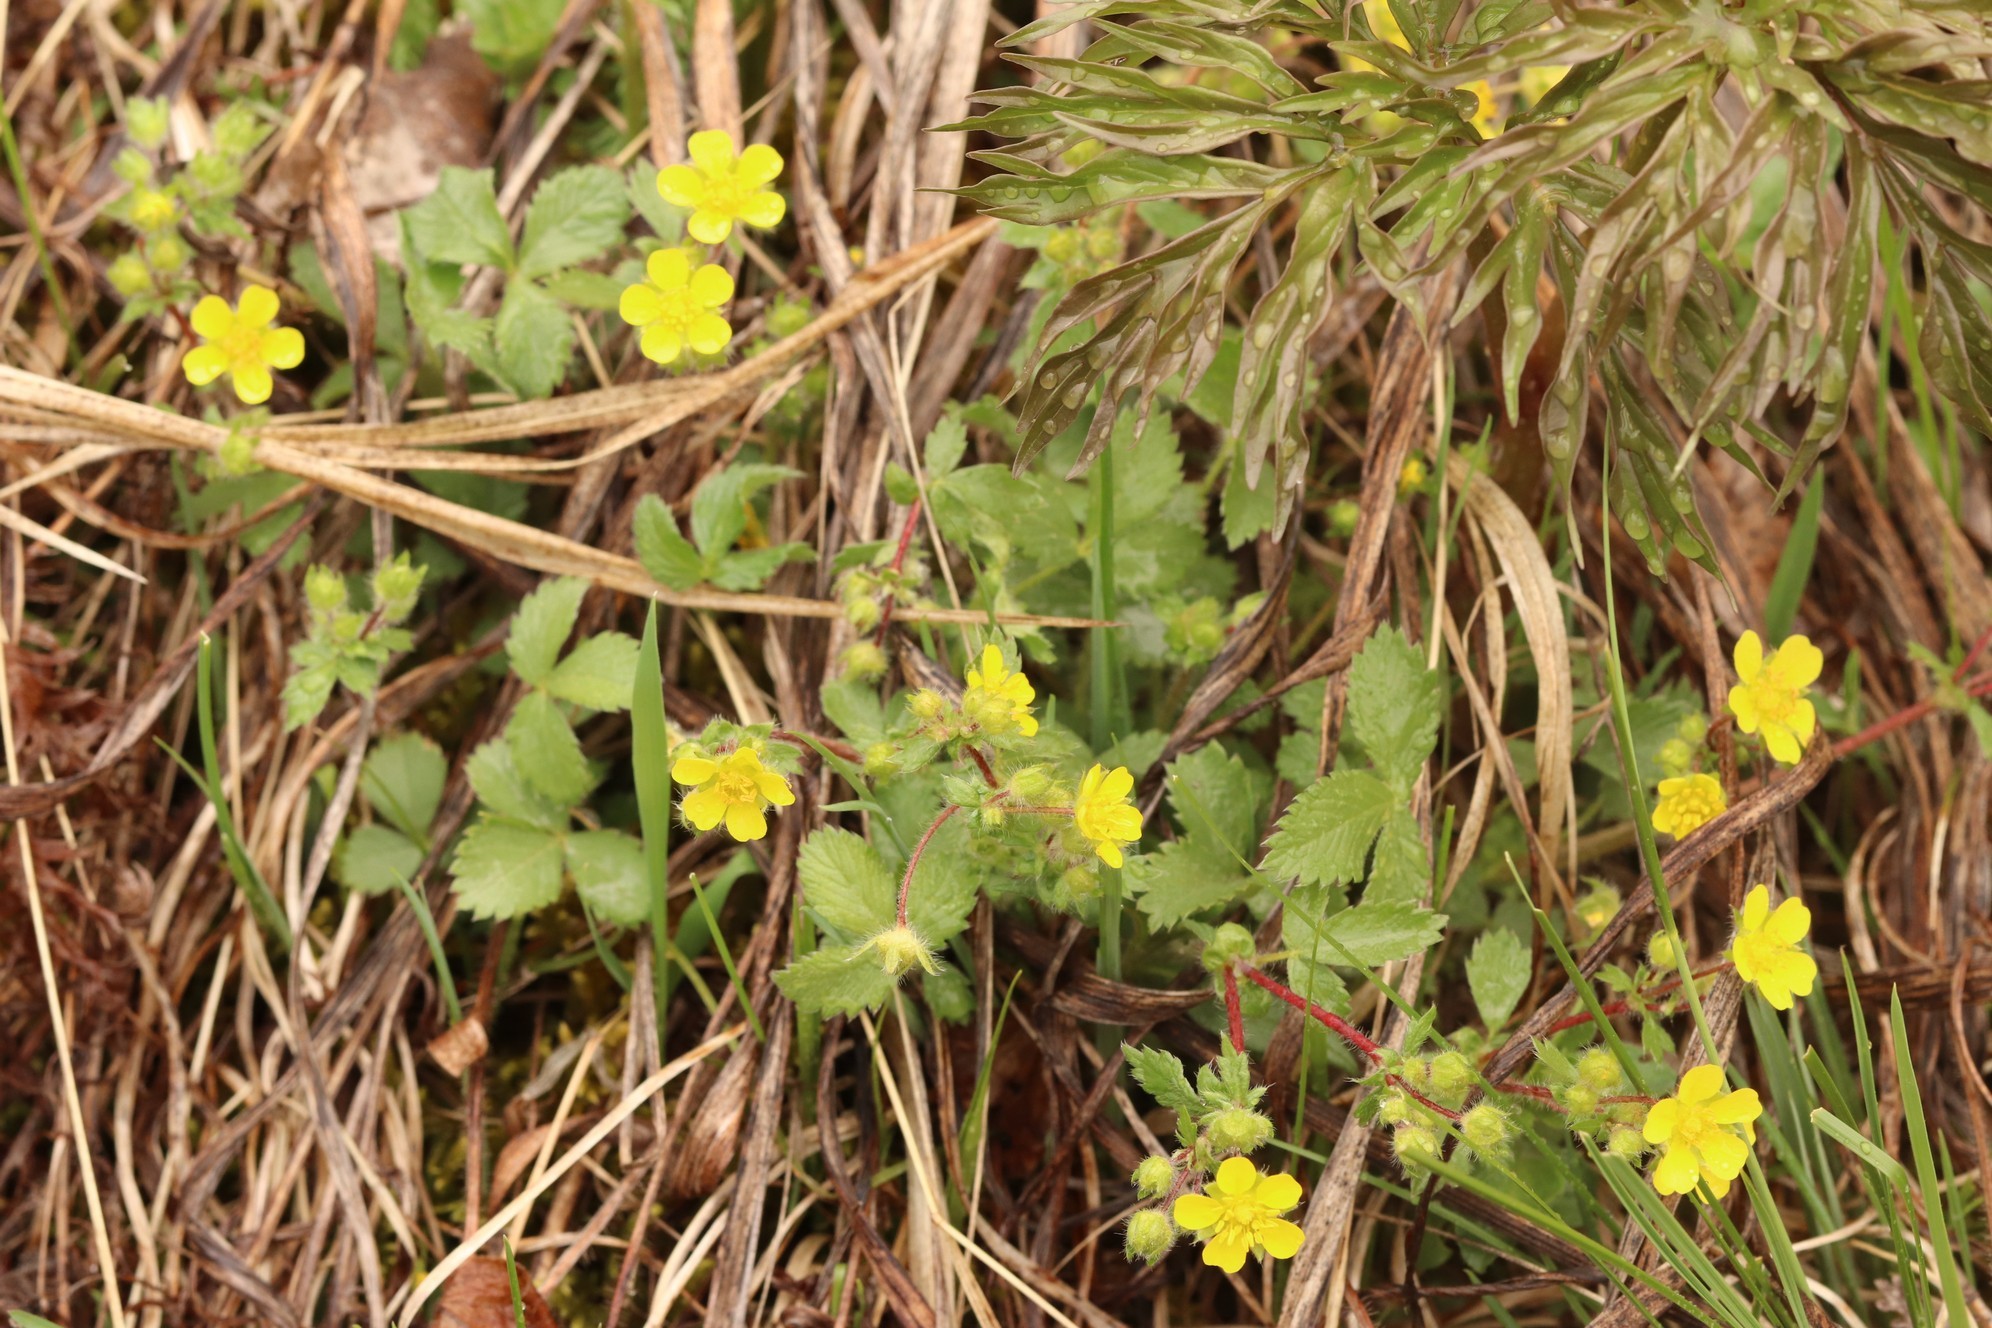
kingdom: Plantae
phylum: Tracheophyta
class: Magnoliopsida
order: Rosales
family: Rosaceae
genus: Potentilla
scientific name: Potentilla fragarioides
